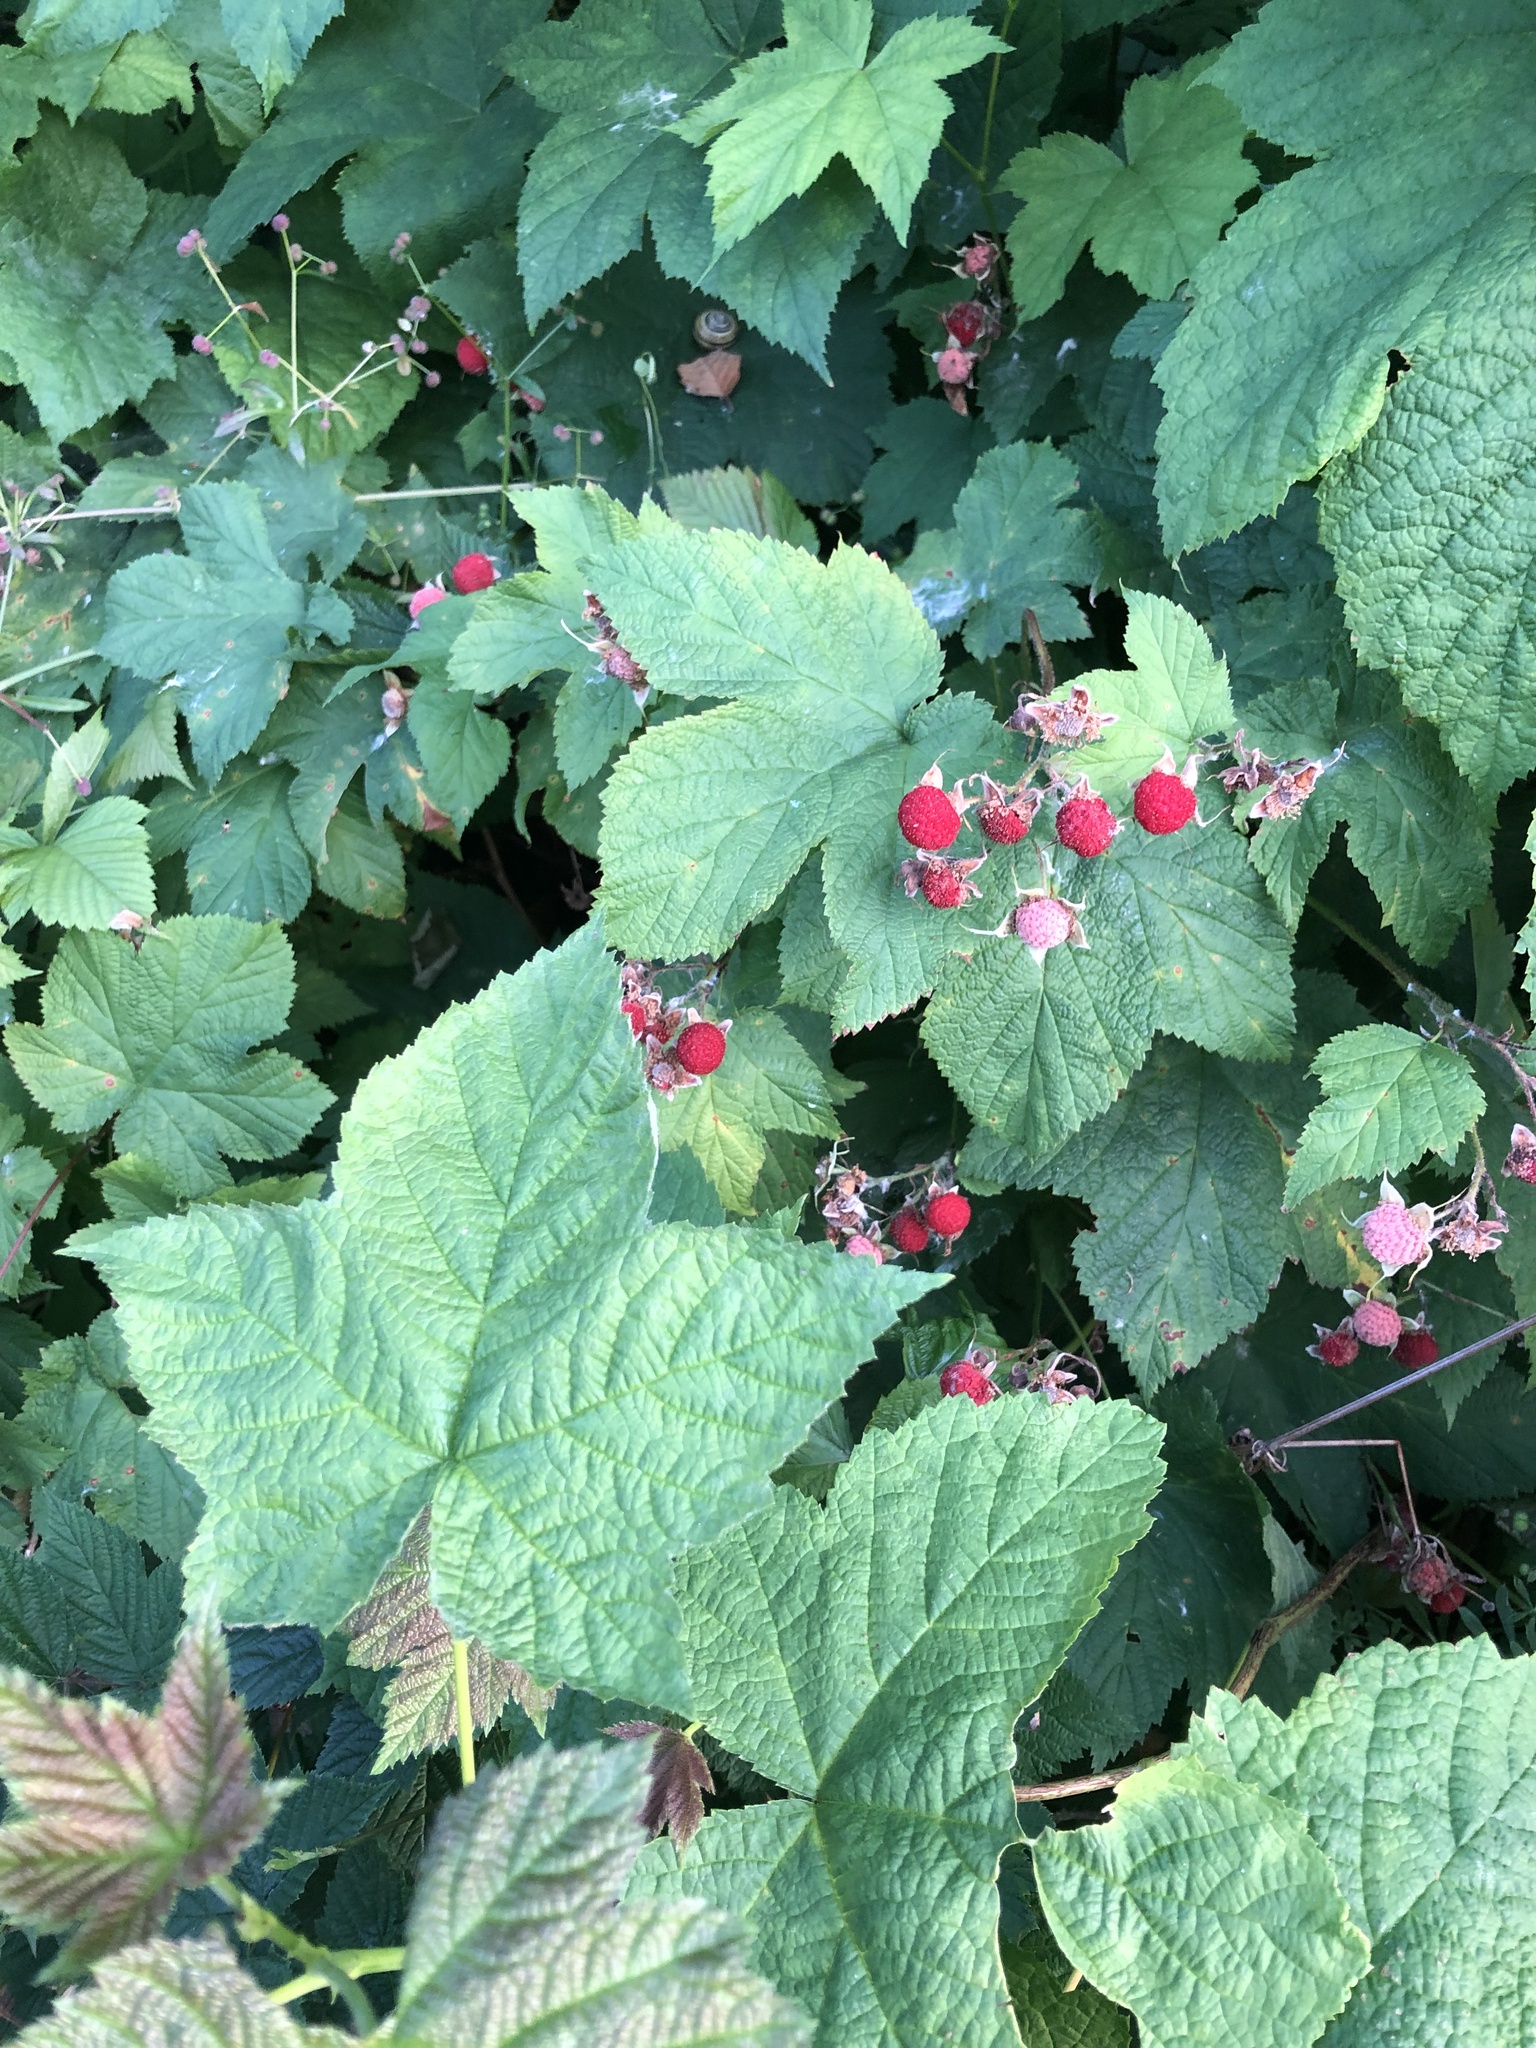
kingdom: Plantae
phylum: Tracheophyta
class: Magnoliopsida
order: Rosales
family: Rosaceae
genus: Rubus
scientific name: Rubus parviflorus
